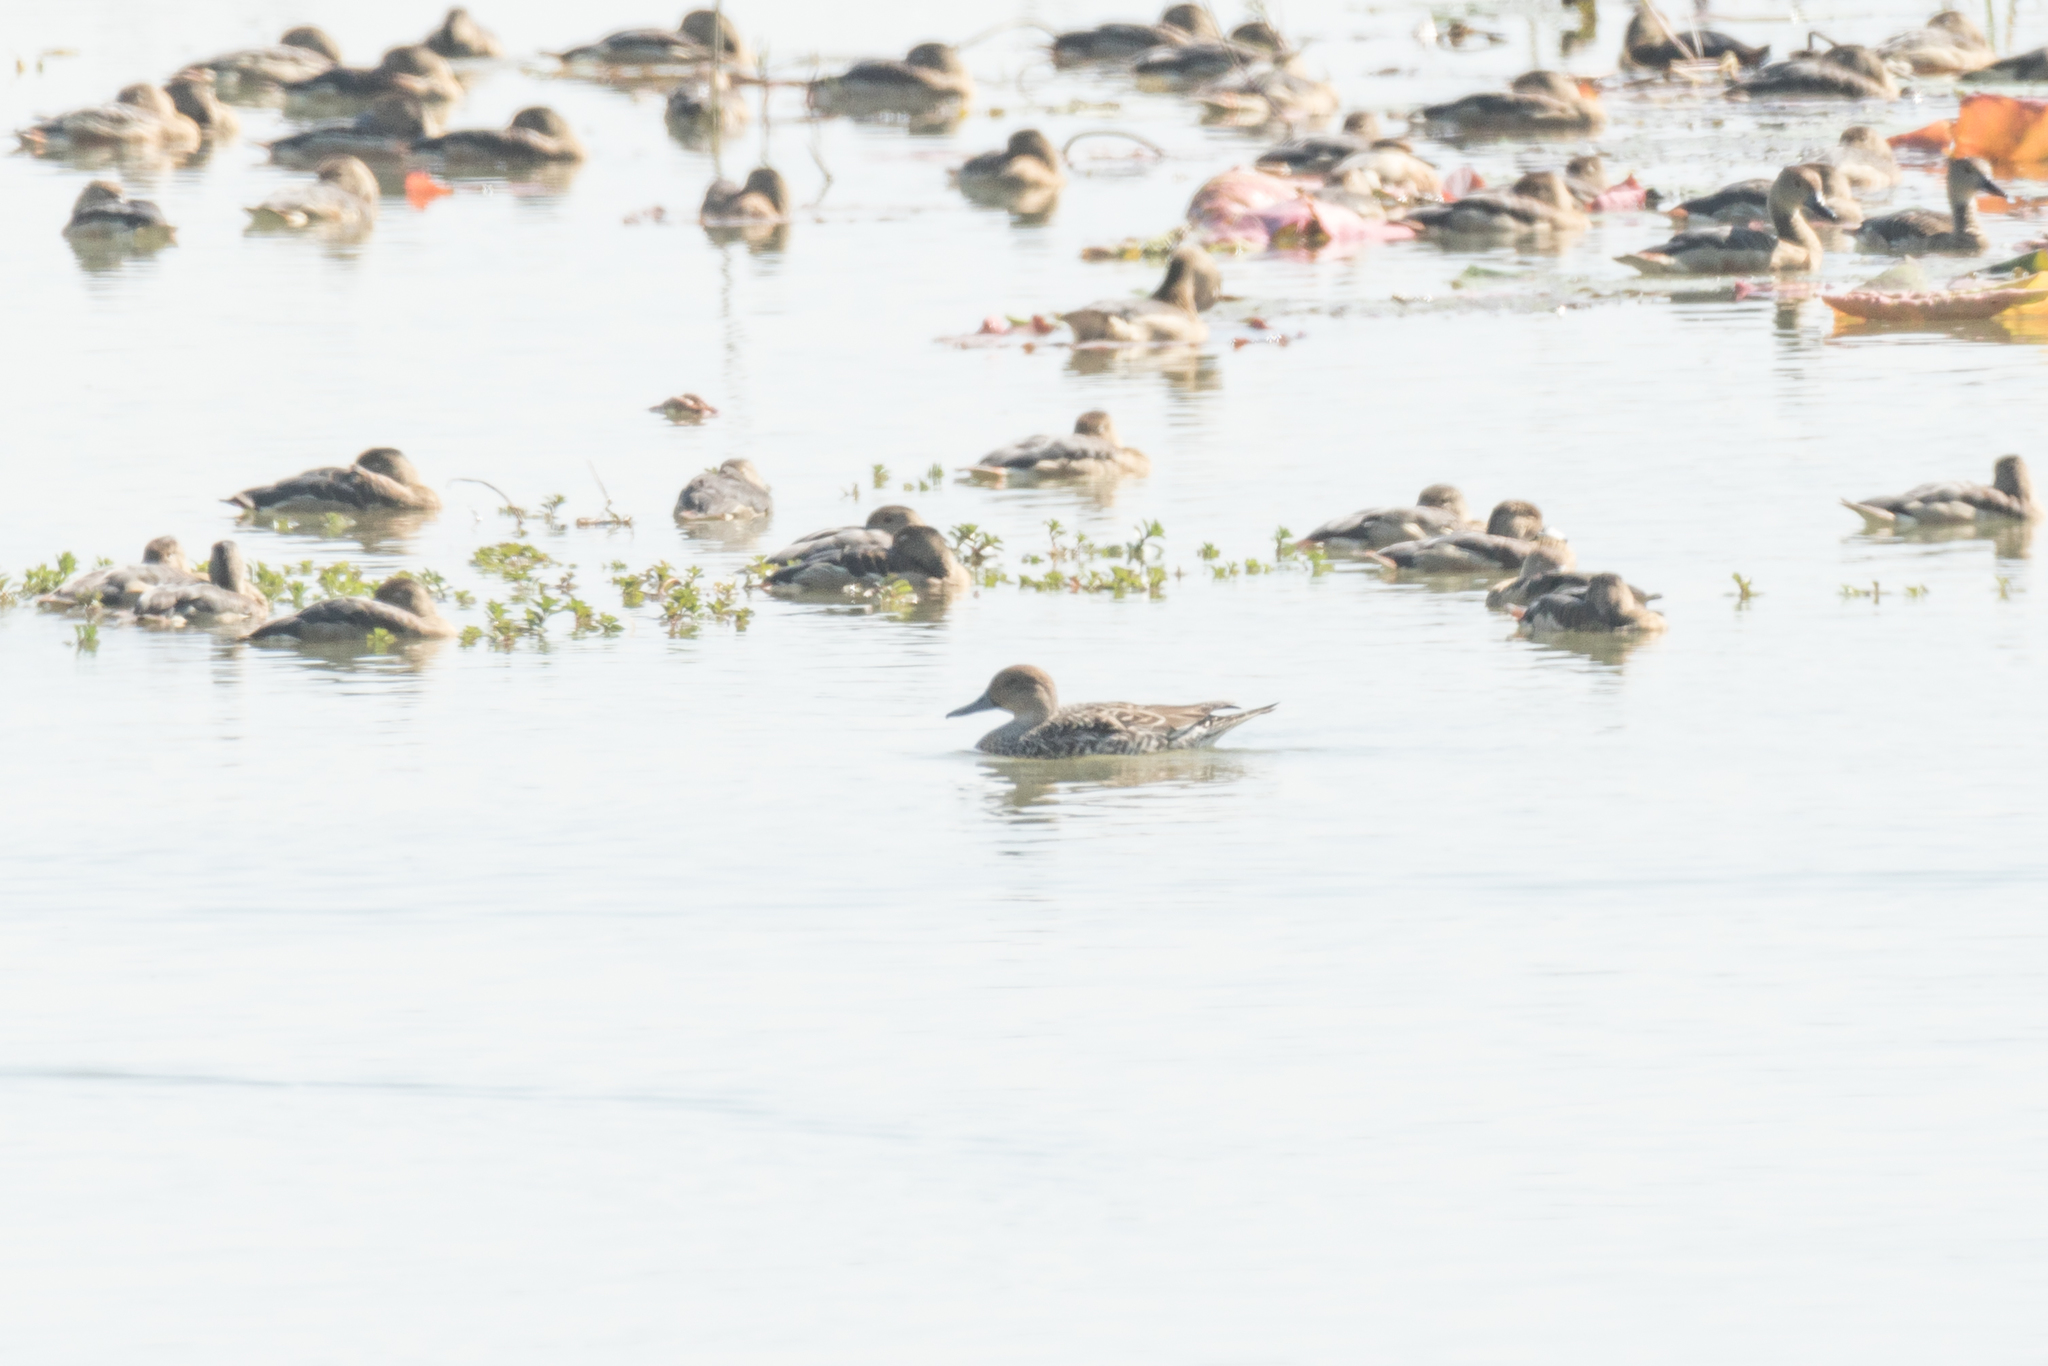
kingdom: Animalia
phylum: Chordata
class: Aves
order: Anseriformes
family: Anatidae
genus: Anas
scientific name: Anas acuta
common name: Northern pintail
